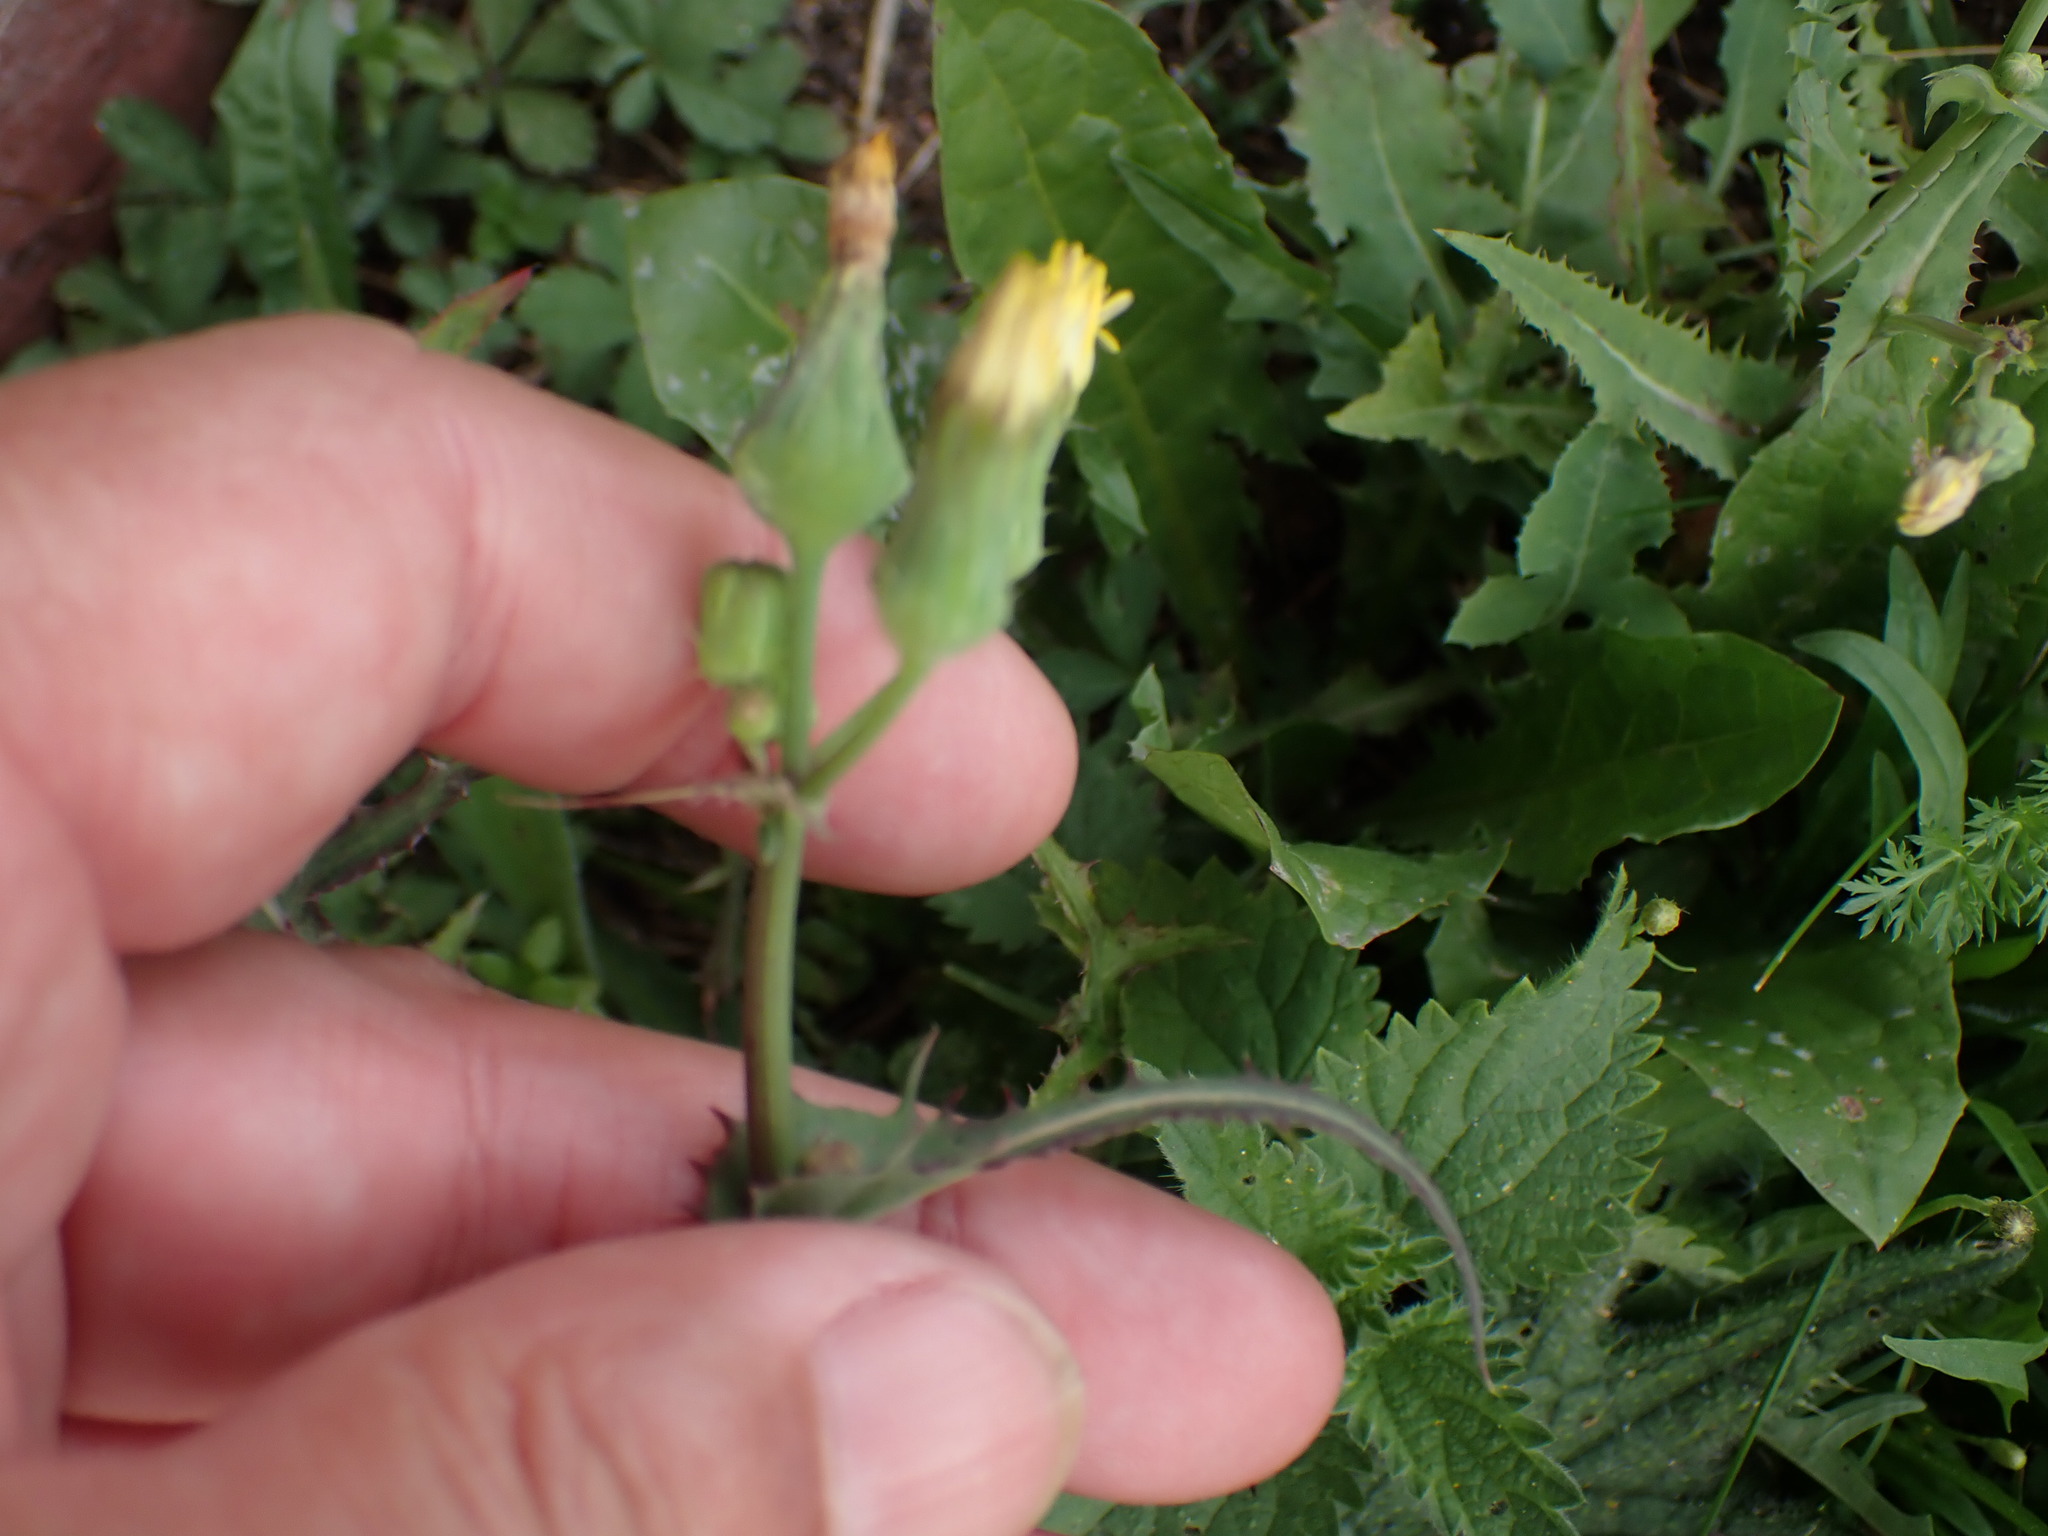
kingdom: Plantae
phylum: Tracheophyta
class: Magnoliopsida
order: Asterales
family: Asteraceae
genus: Sonchus
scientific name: Sonchus oleraceus
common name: Common sowthistle
